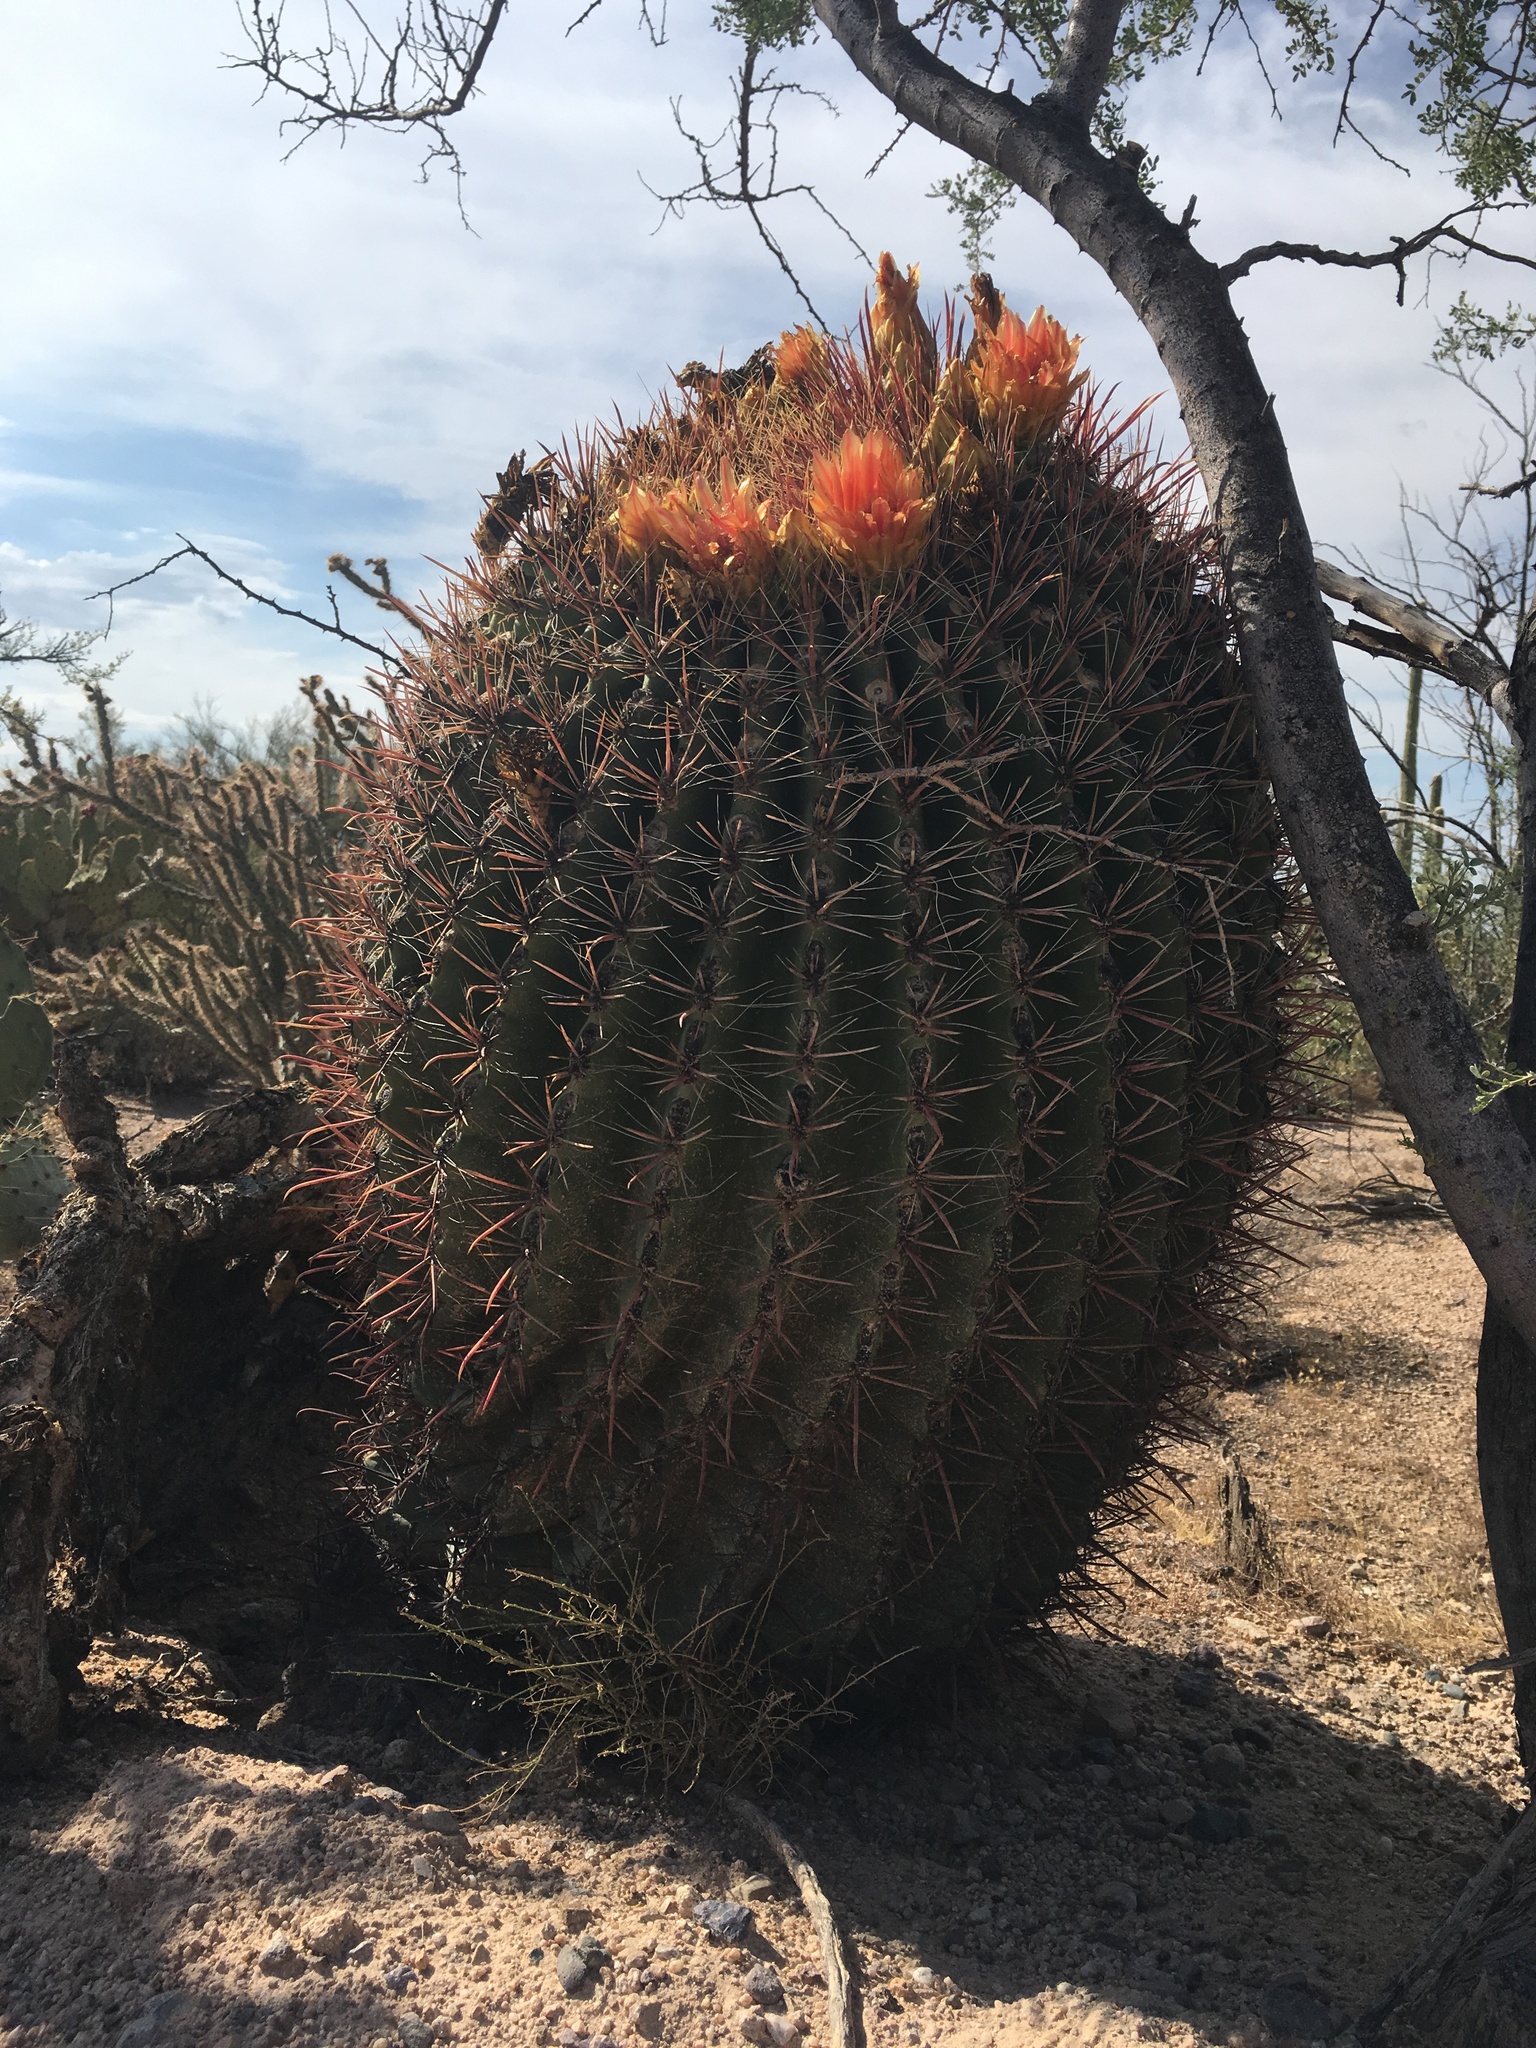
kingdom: Plantae
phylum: Tracheophyta
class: Magnoliopsida
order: Caryophyllales
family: Cactaceae
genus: Ferocactus
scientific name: Ferocactus wislizeni
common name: Candy barrel cactus
